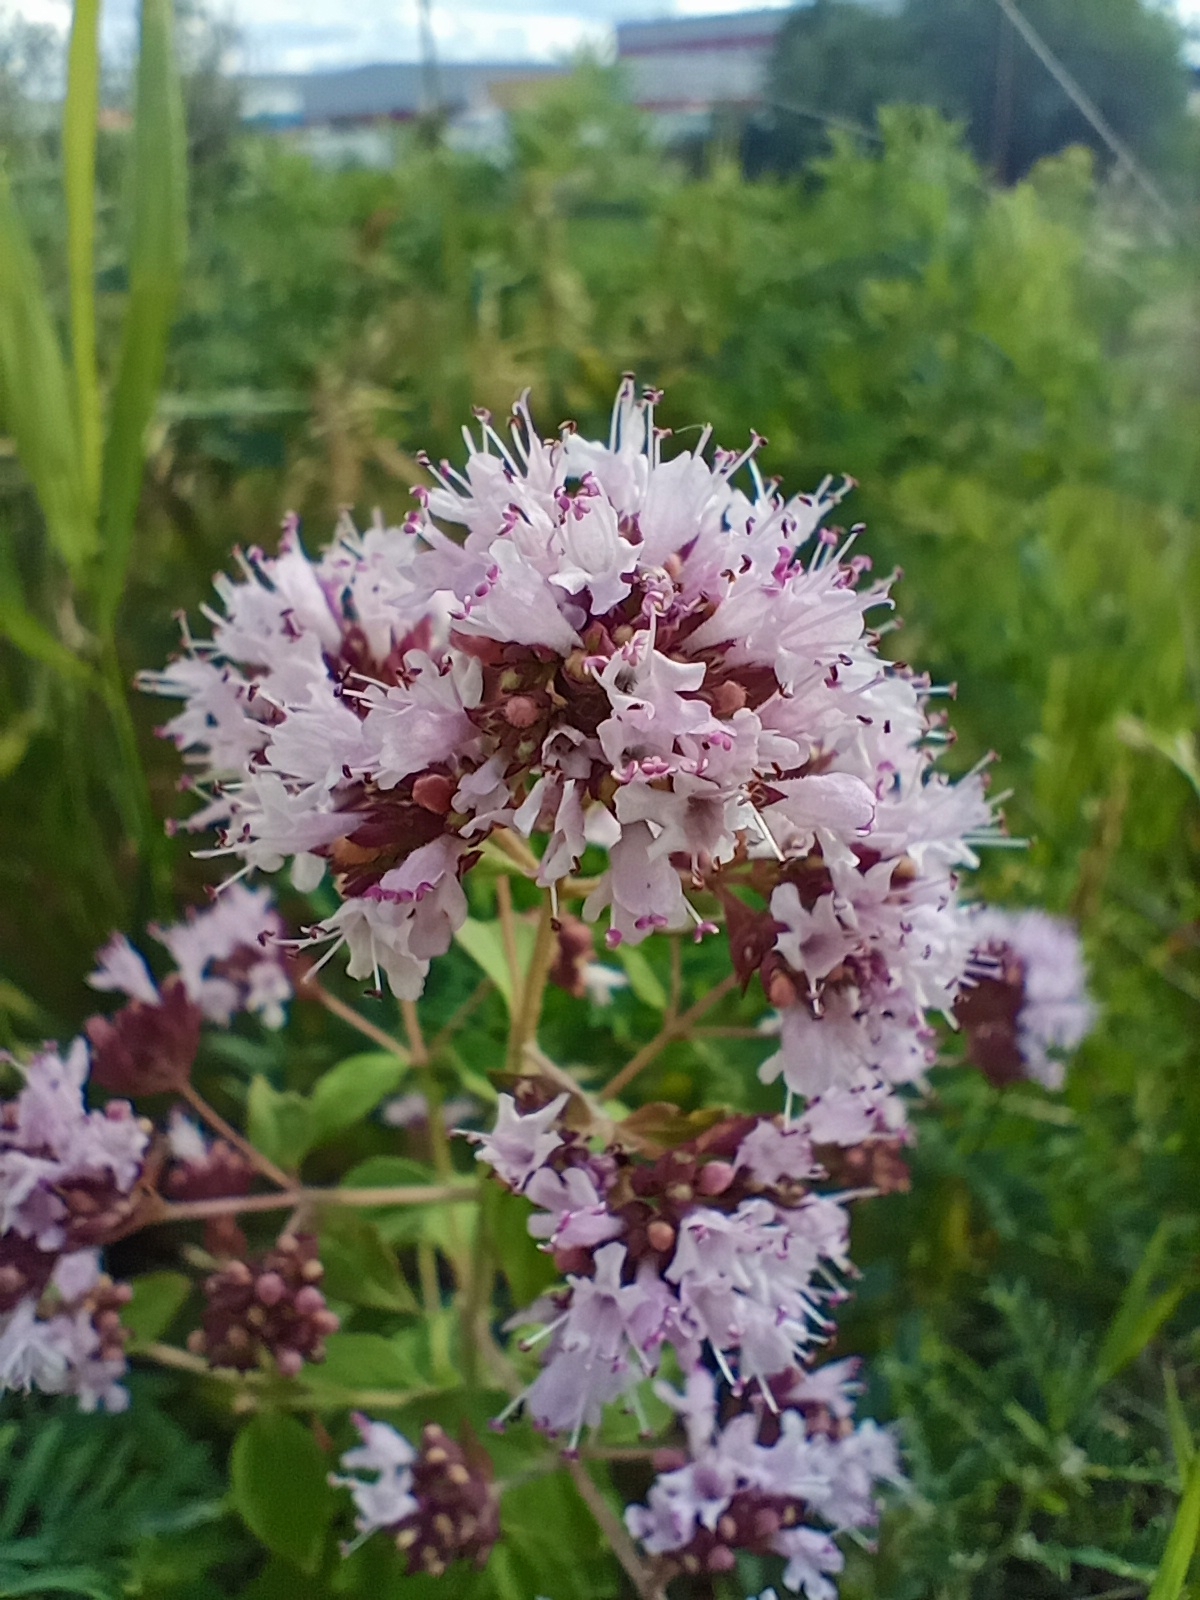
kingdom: Plantae
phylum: Tracheophyta
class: Magnoliopsida
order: Lamiales
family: Lamiaceae
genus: Origanum
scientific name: Origanum vulgare
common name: Wild marjoram
